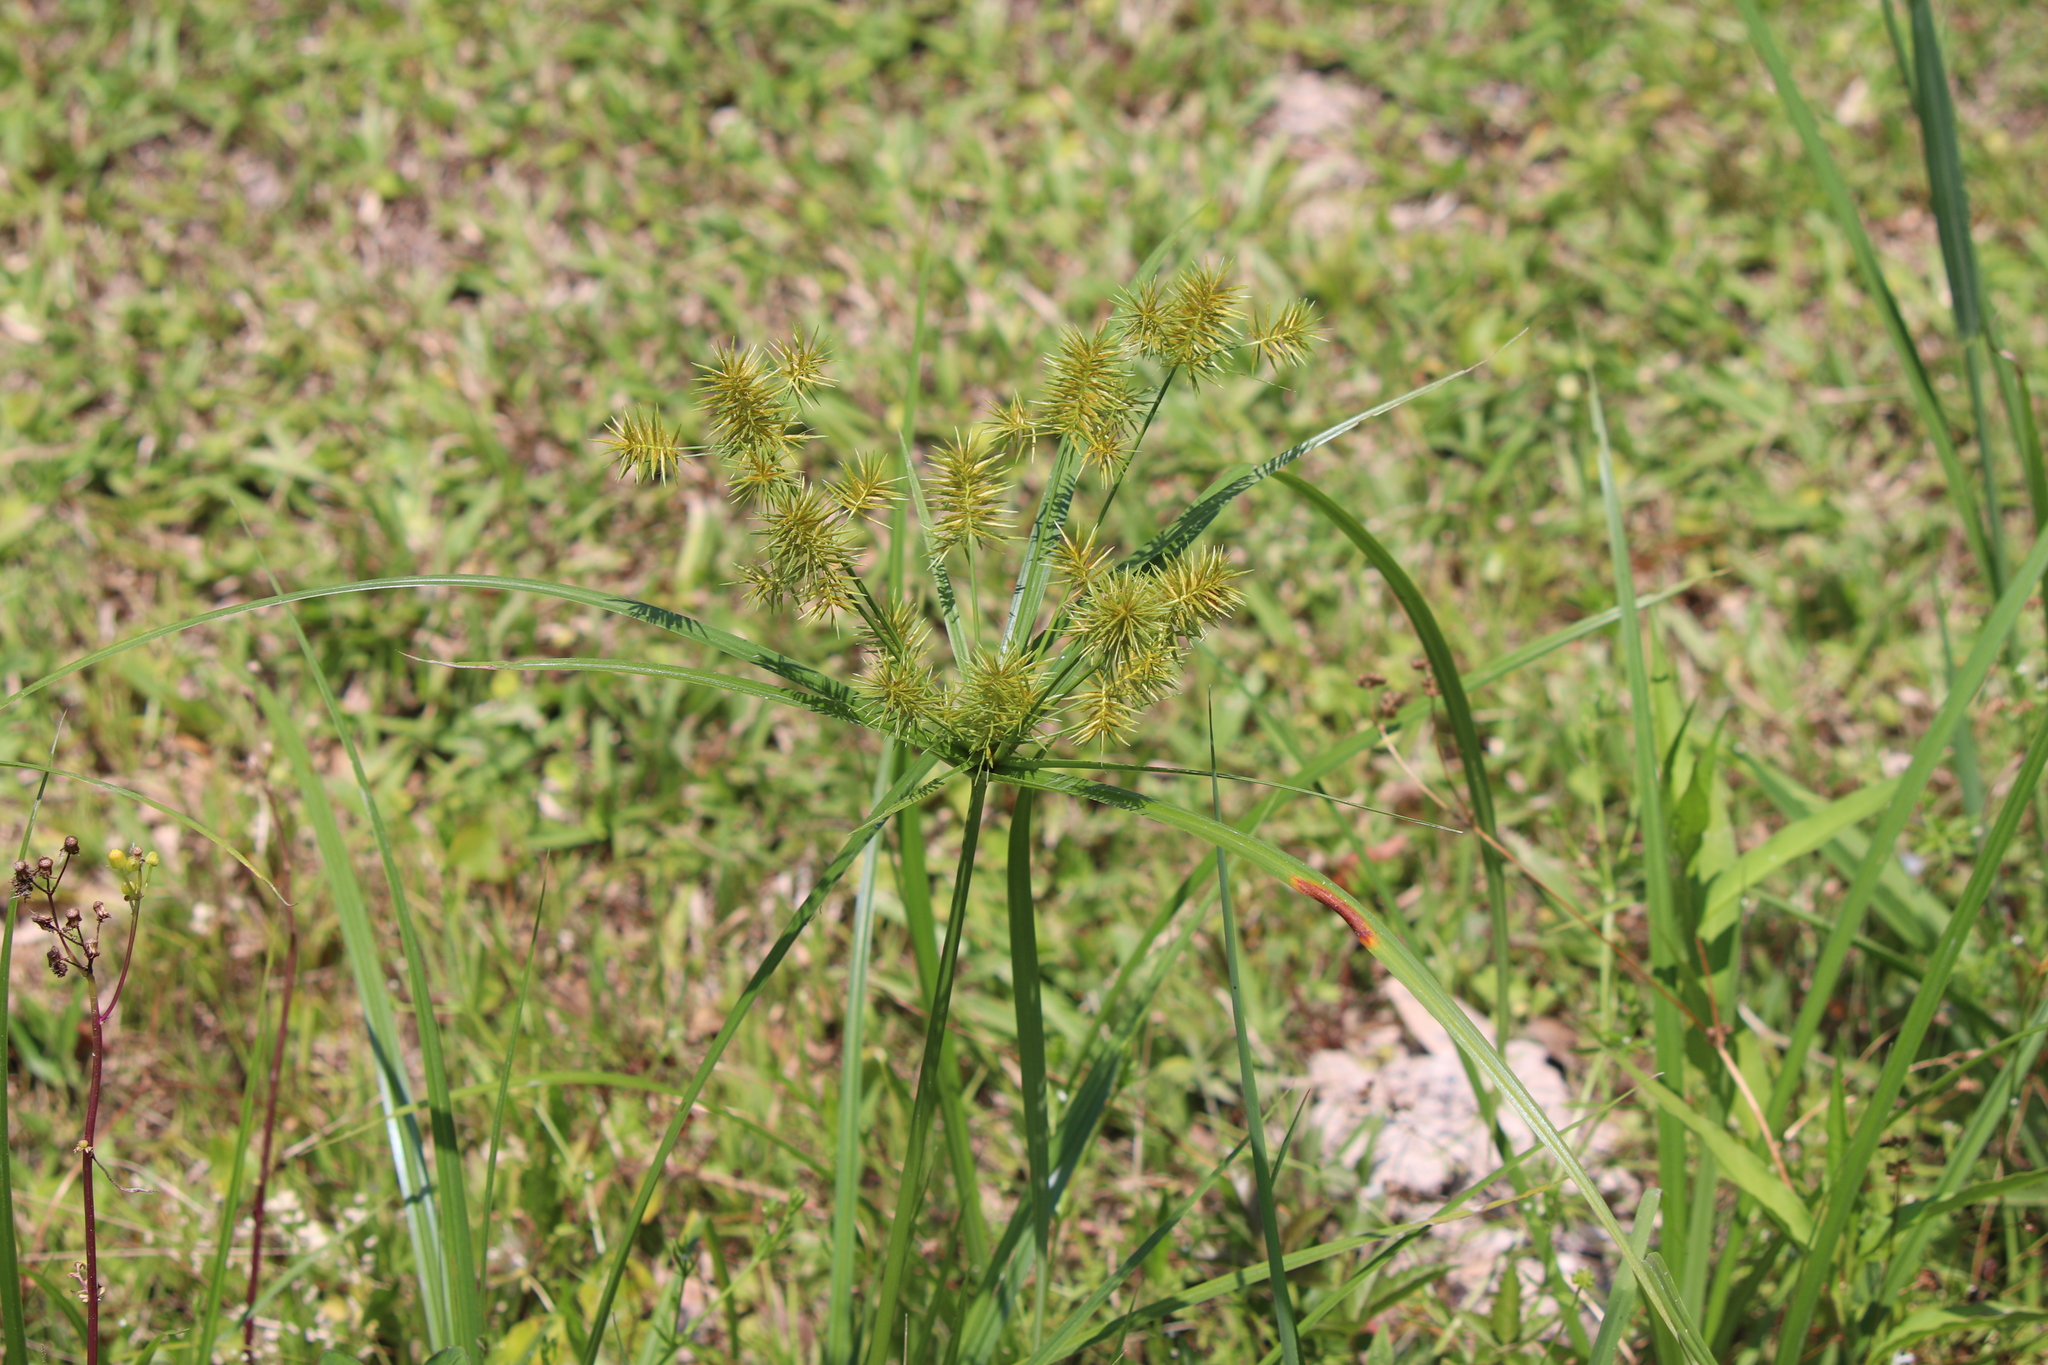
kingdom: Plantae
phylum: Tracheophyta
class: Liliopsida
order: Poales
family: Cyperaceae
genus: Cyperus
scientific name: Cyperus strigosus
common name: False nutsedge
